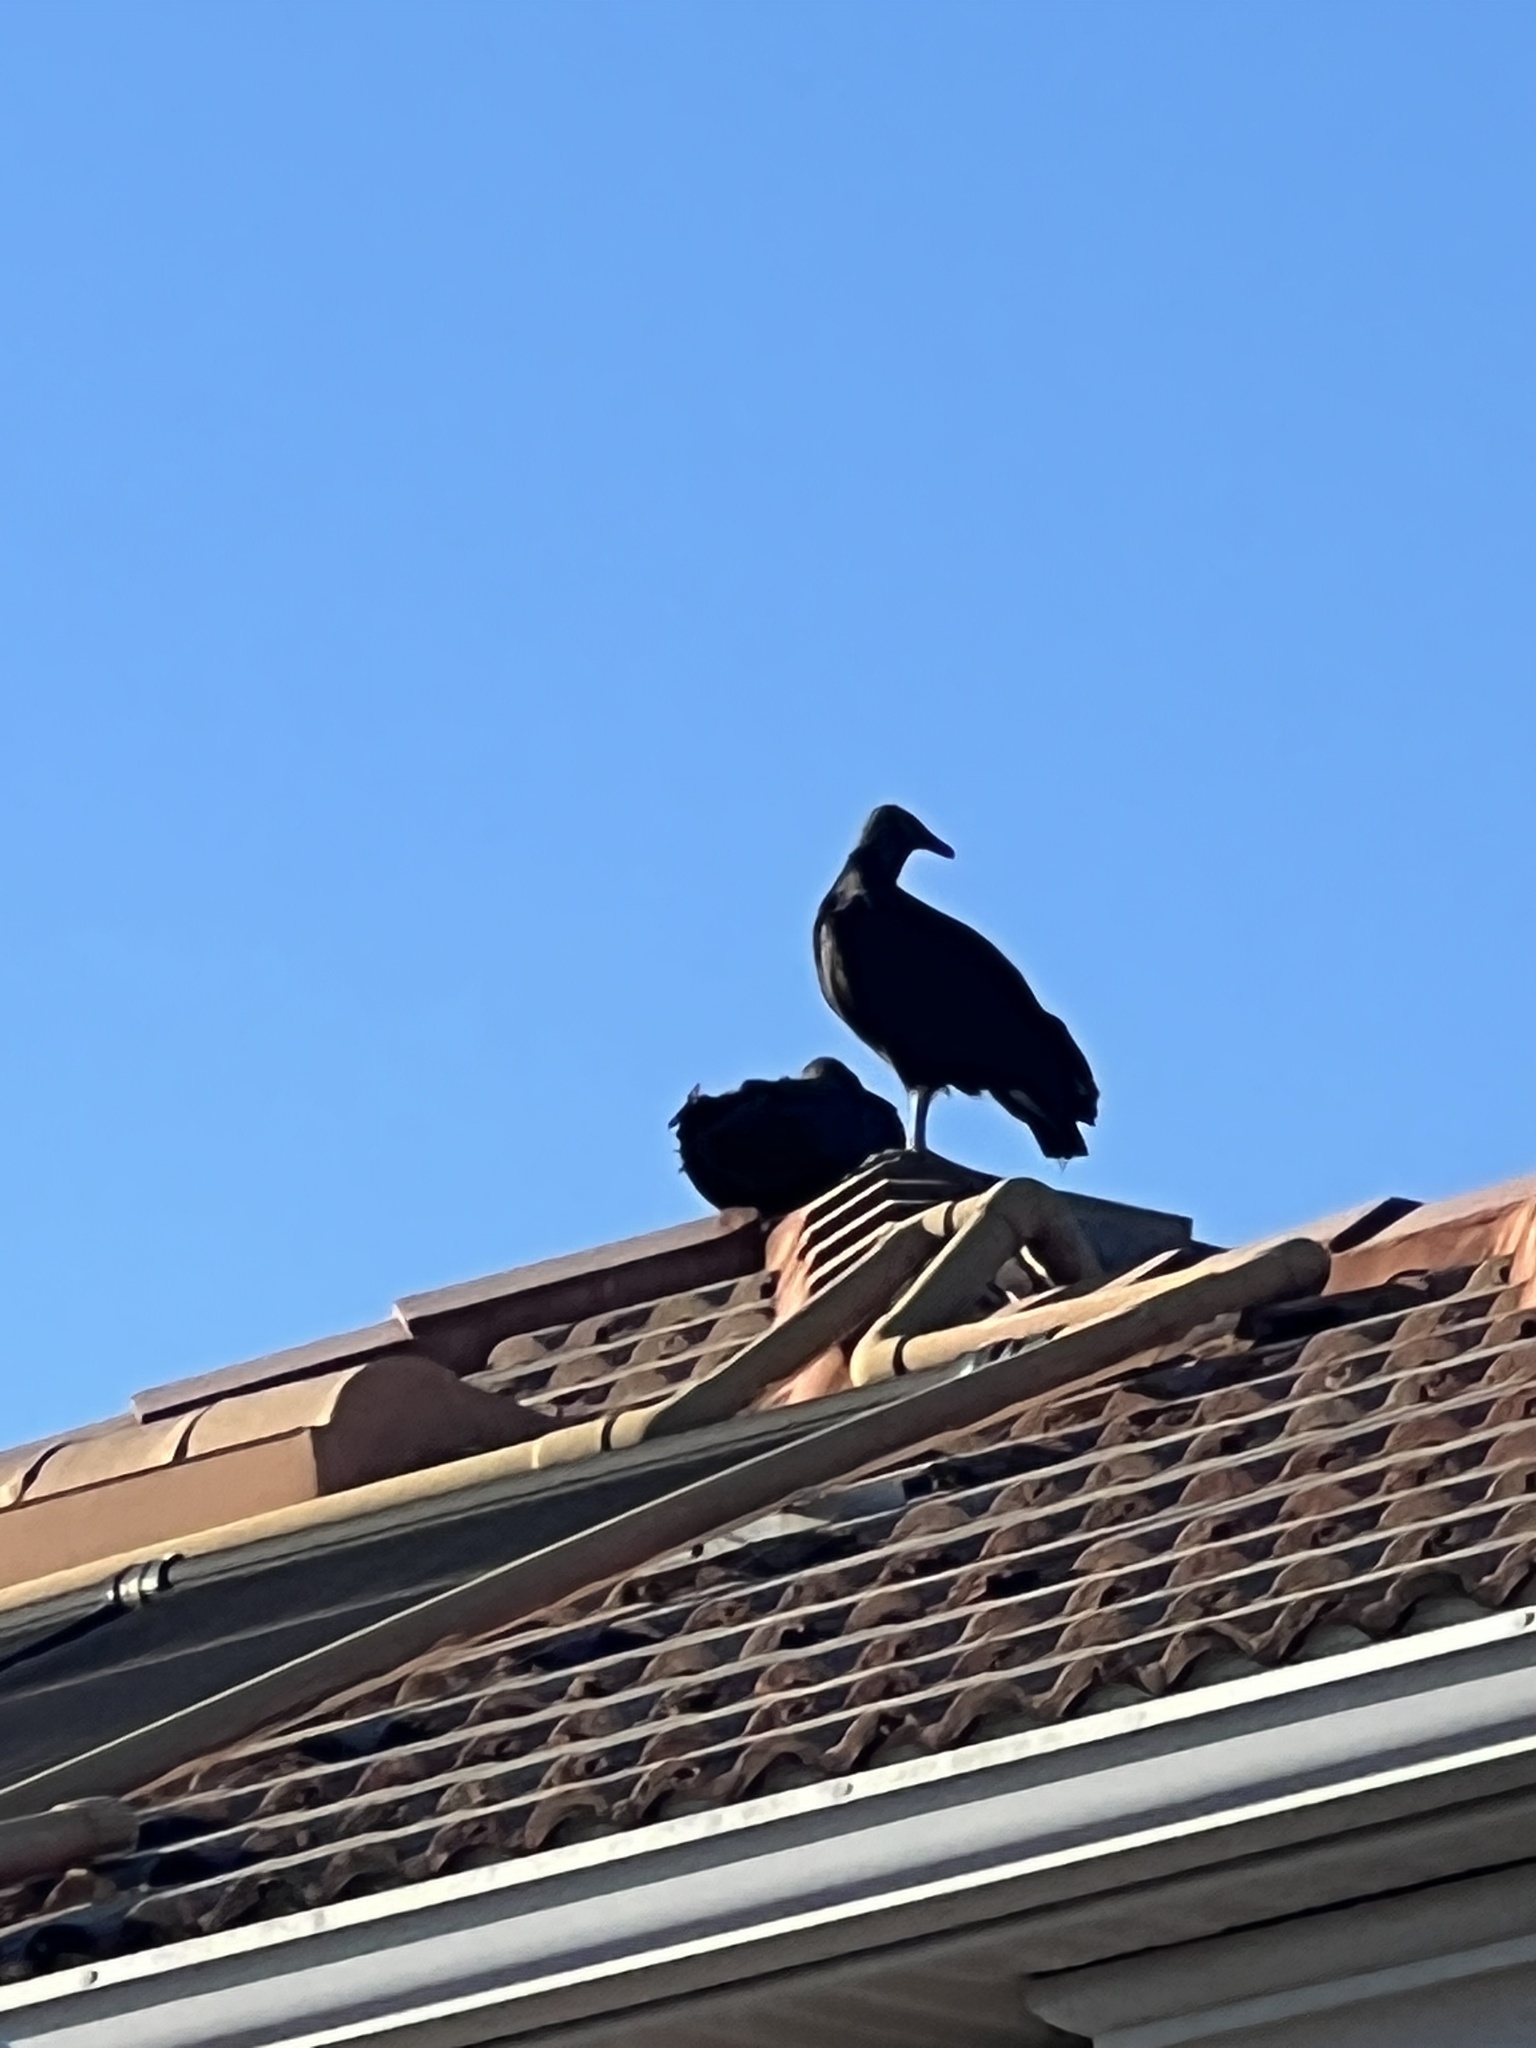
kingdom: Animalia
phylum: Chordata
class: Aves
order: Accipitriformes
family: Cathartidae
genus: Coragyps
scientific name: Coragyps atratus
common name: Black vulture
